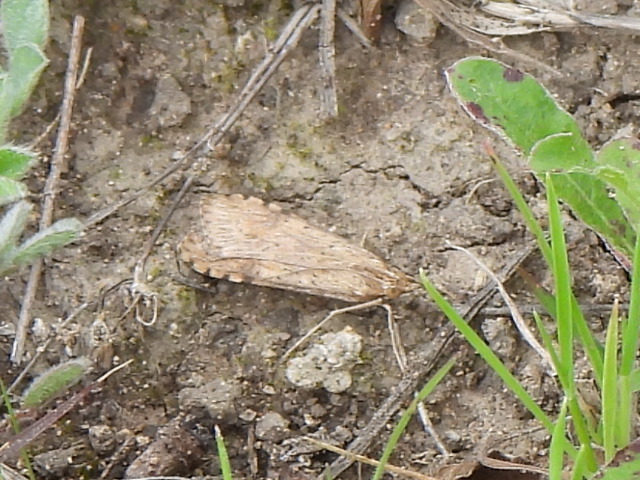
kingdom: Animalia
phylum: Arthropoda
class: Insecta
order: Lepidoptera
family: Crambidae
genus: Nomophila
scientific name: Nomophila nearctica
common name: American rush veneer
